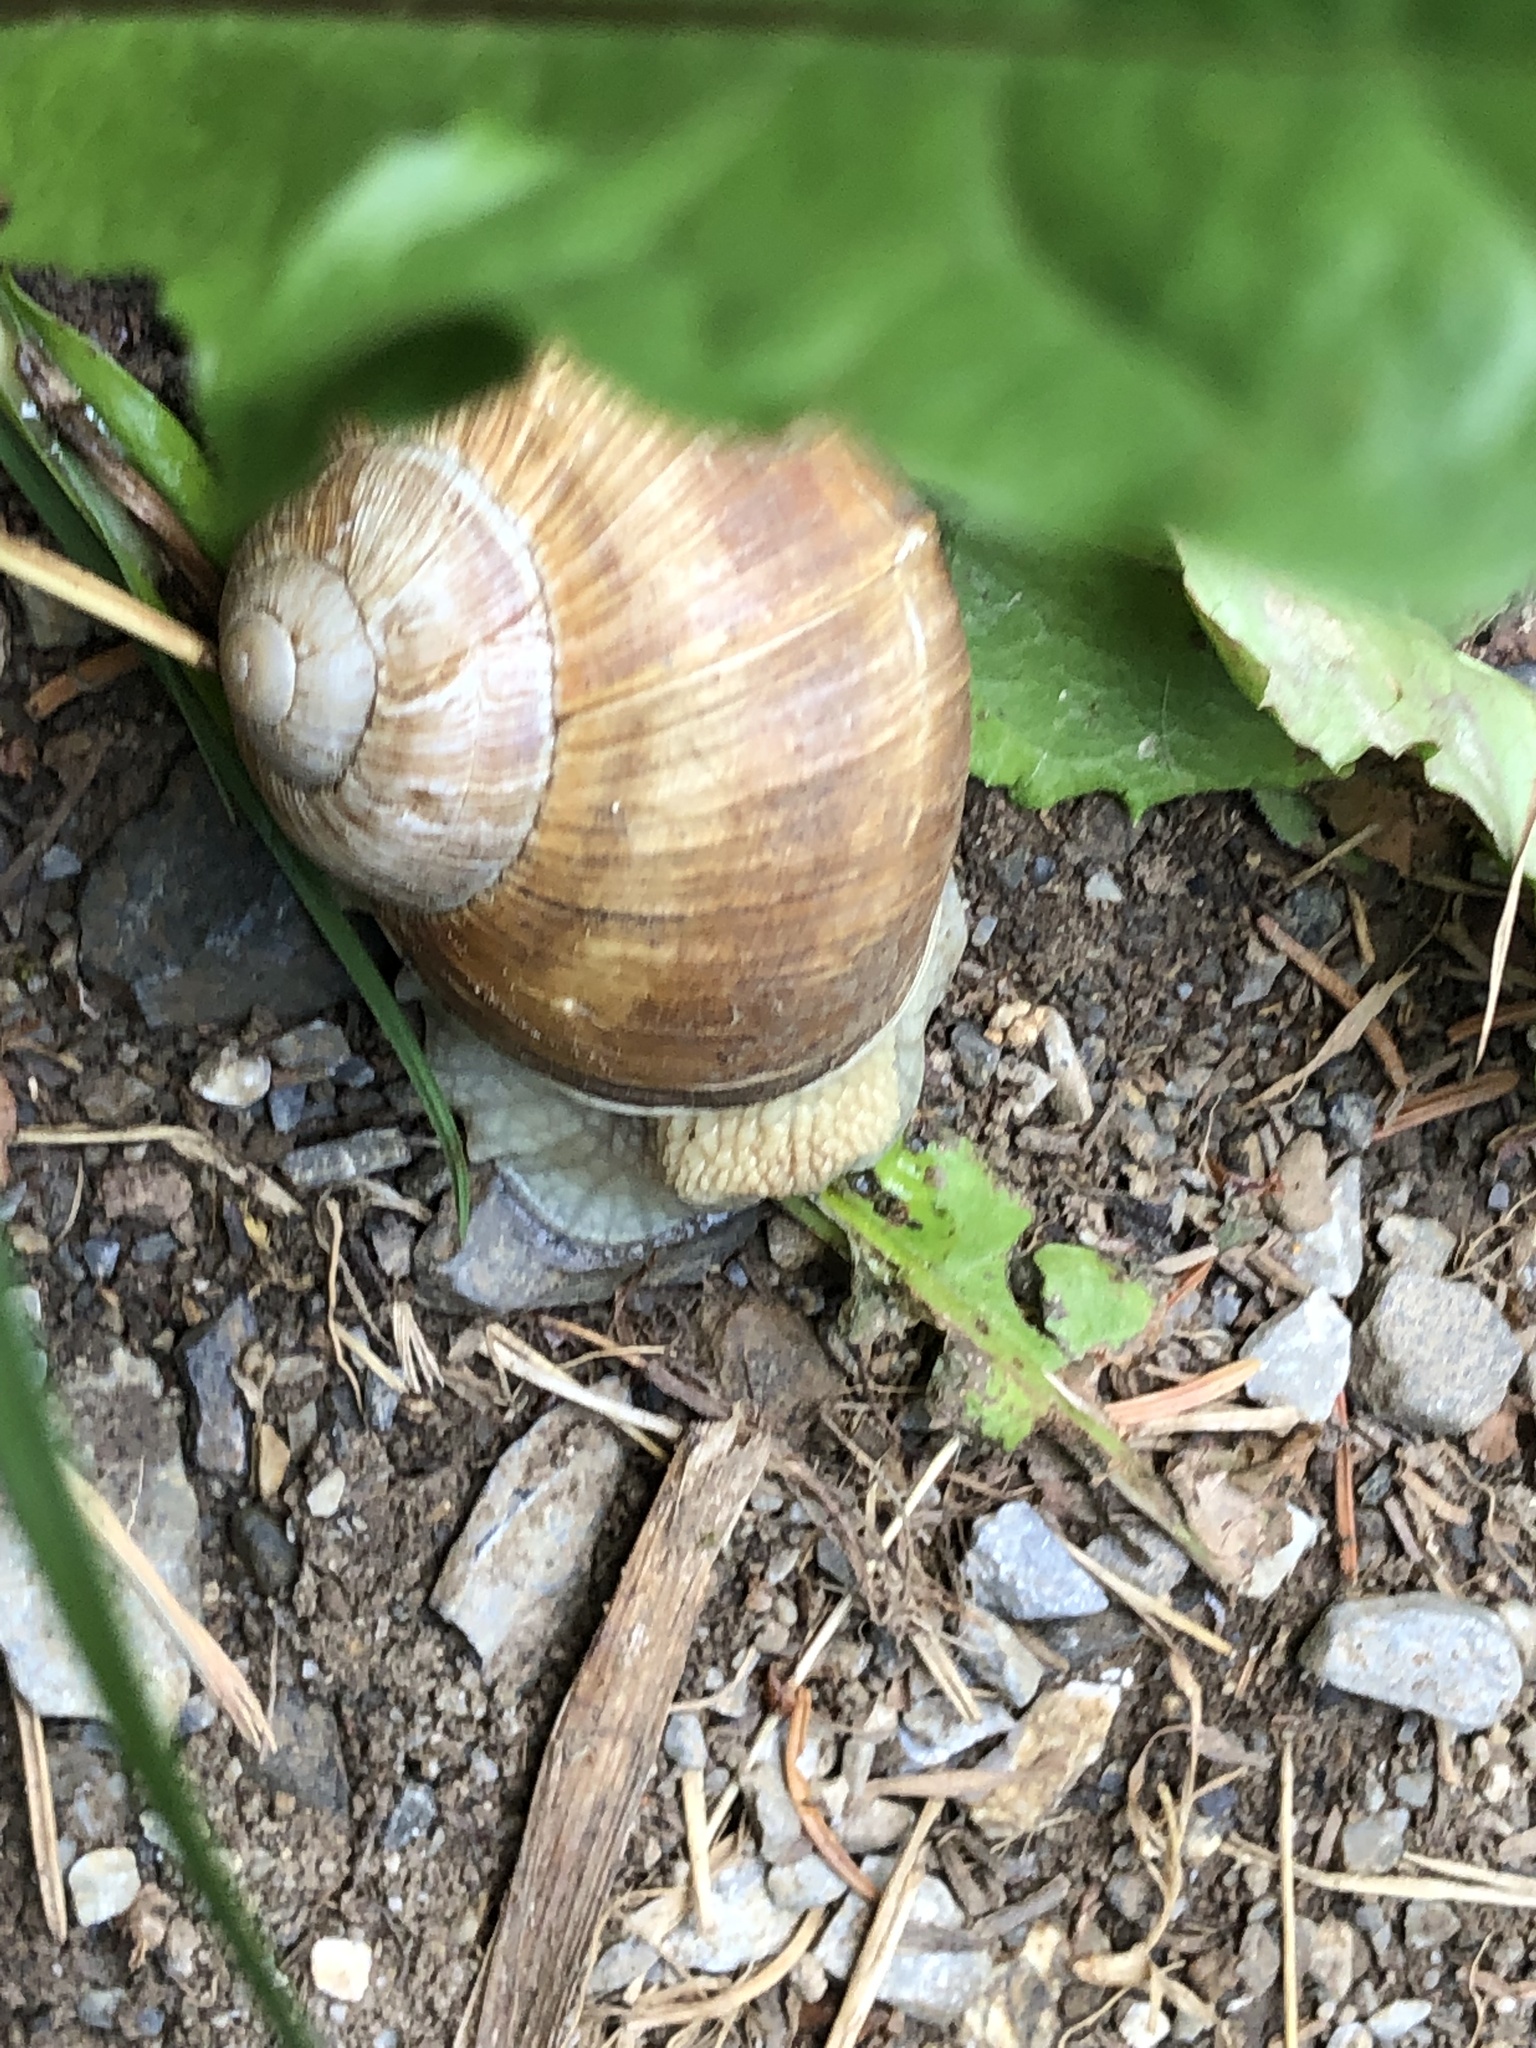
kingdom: Animalia
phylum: Mollusca
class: Gastropoda
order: Stylommatophora
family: Helicidae
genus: Helix
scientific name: Helix pomatia
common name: Roman snail
